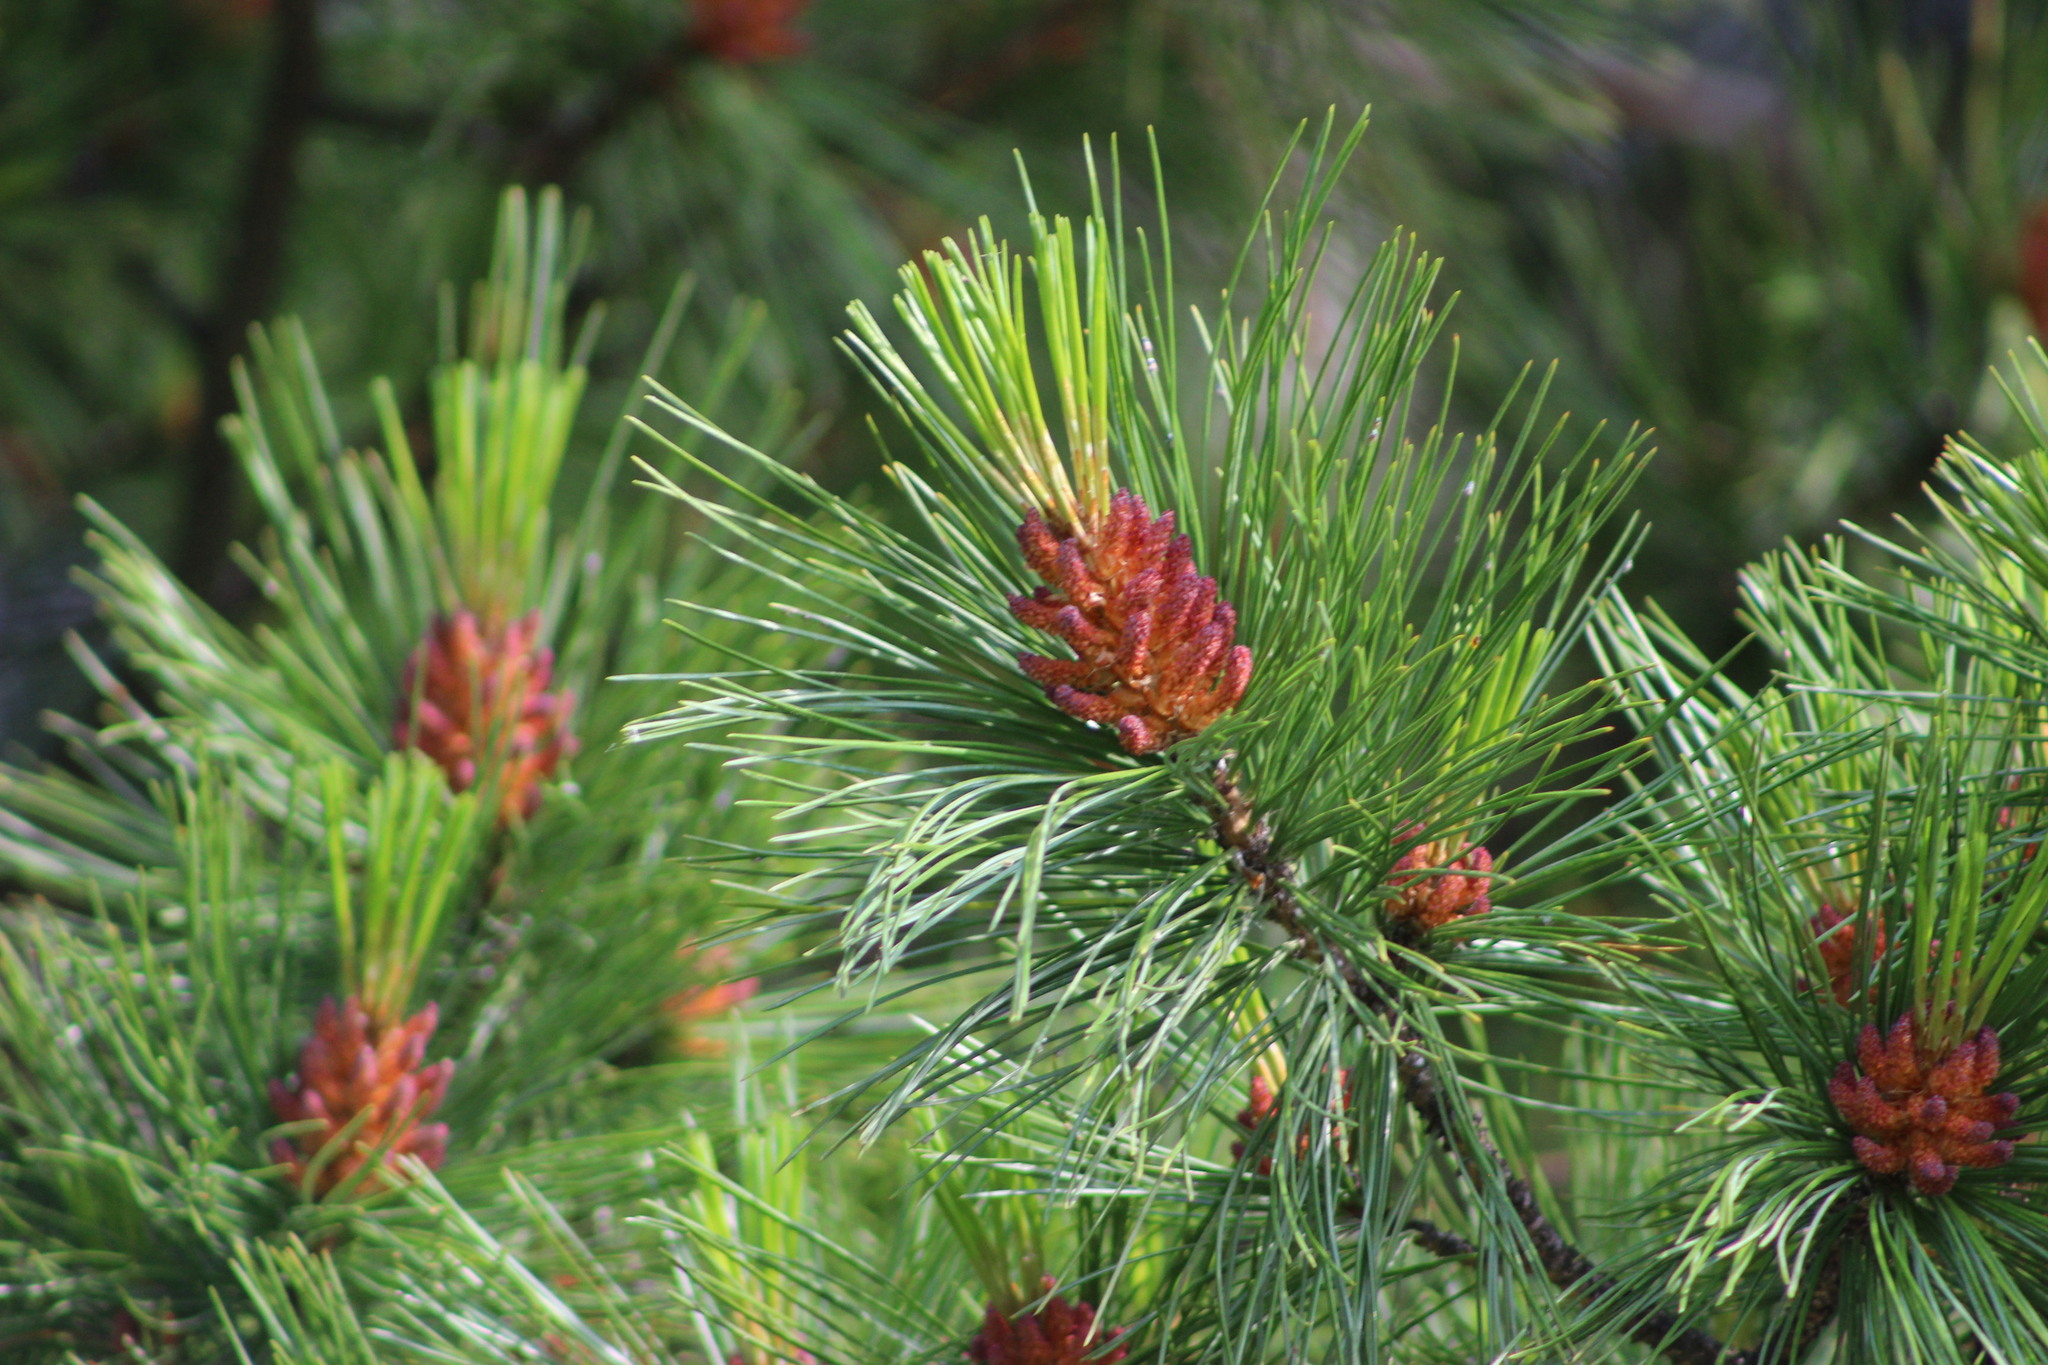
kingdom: Plantae
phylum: Tracheophyta
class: Pinopsida
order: Pinales
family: Pinaceae
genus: Pinus
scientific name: Pinus sibirica
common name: Siberian pine
